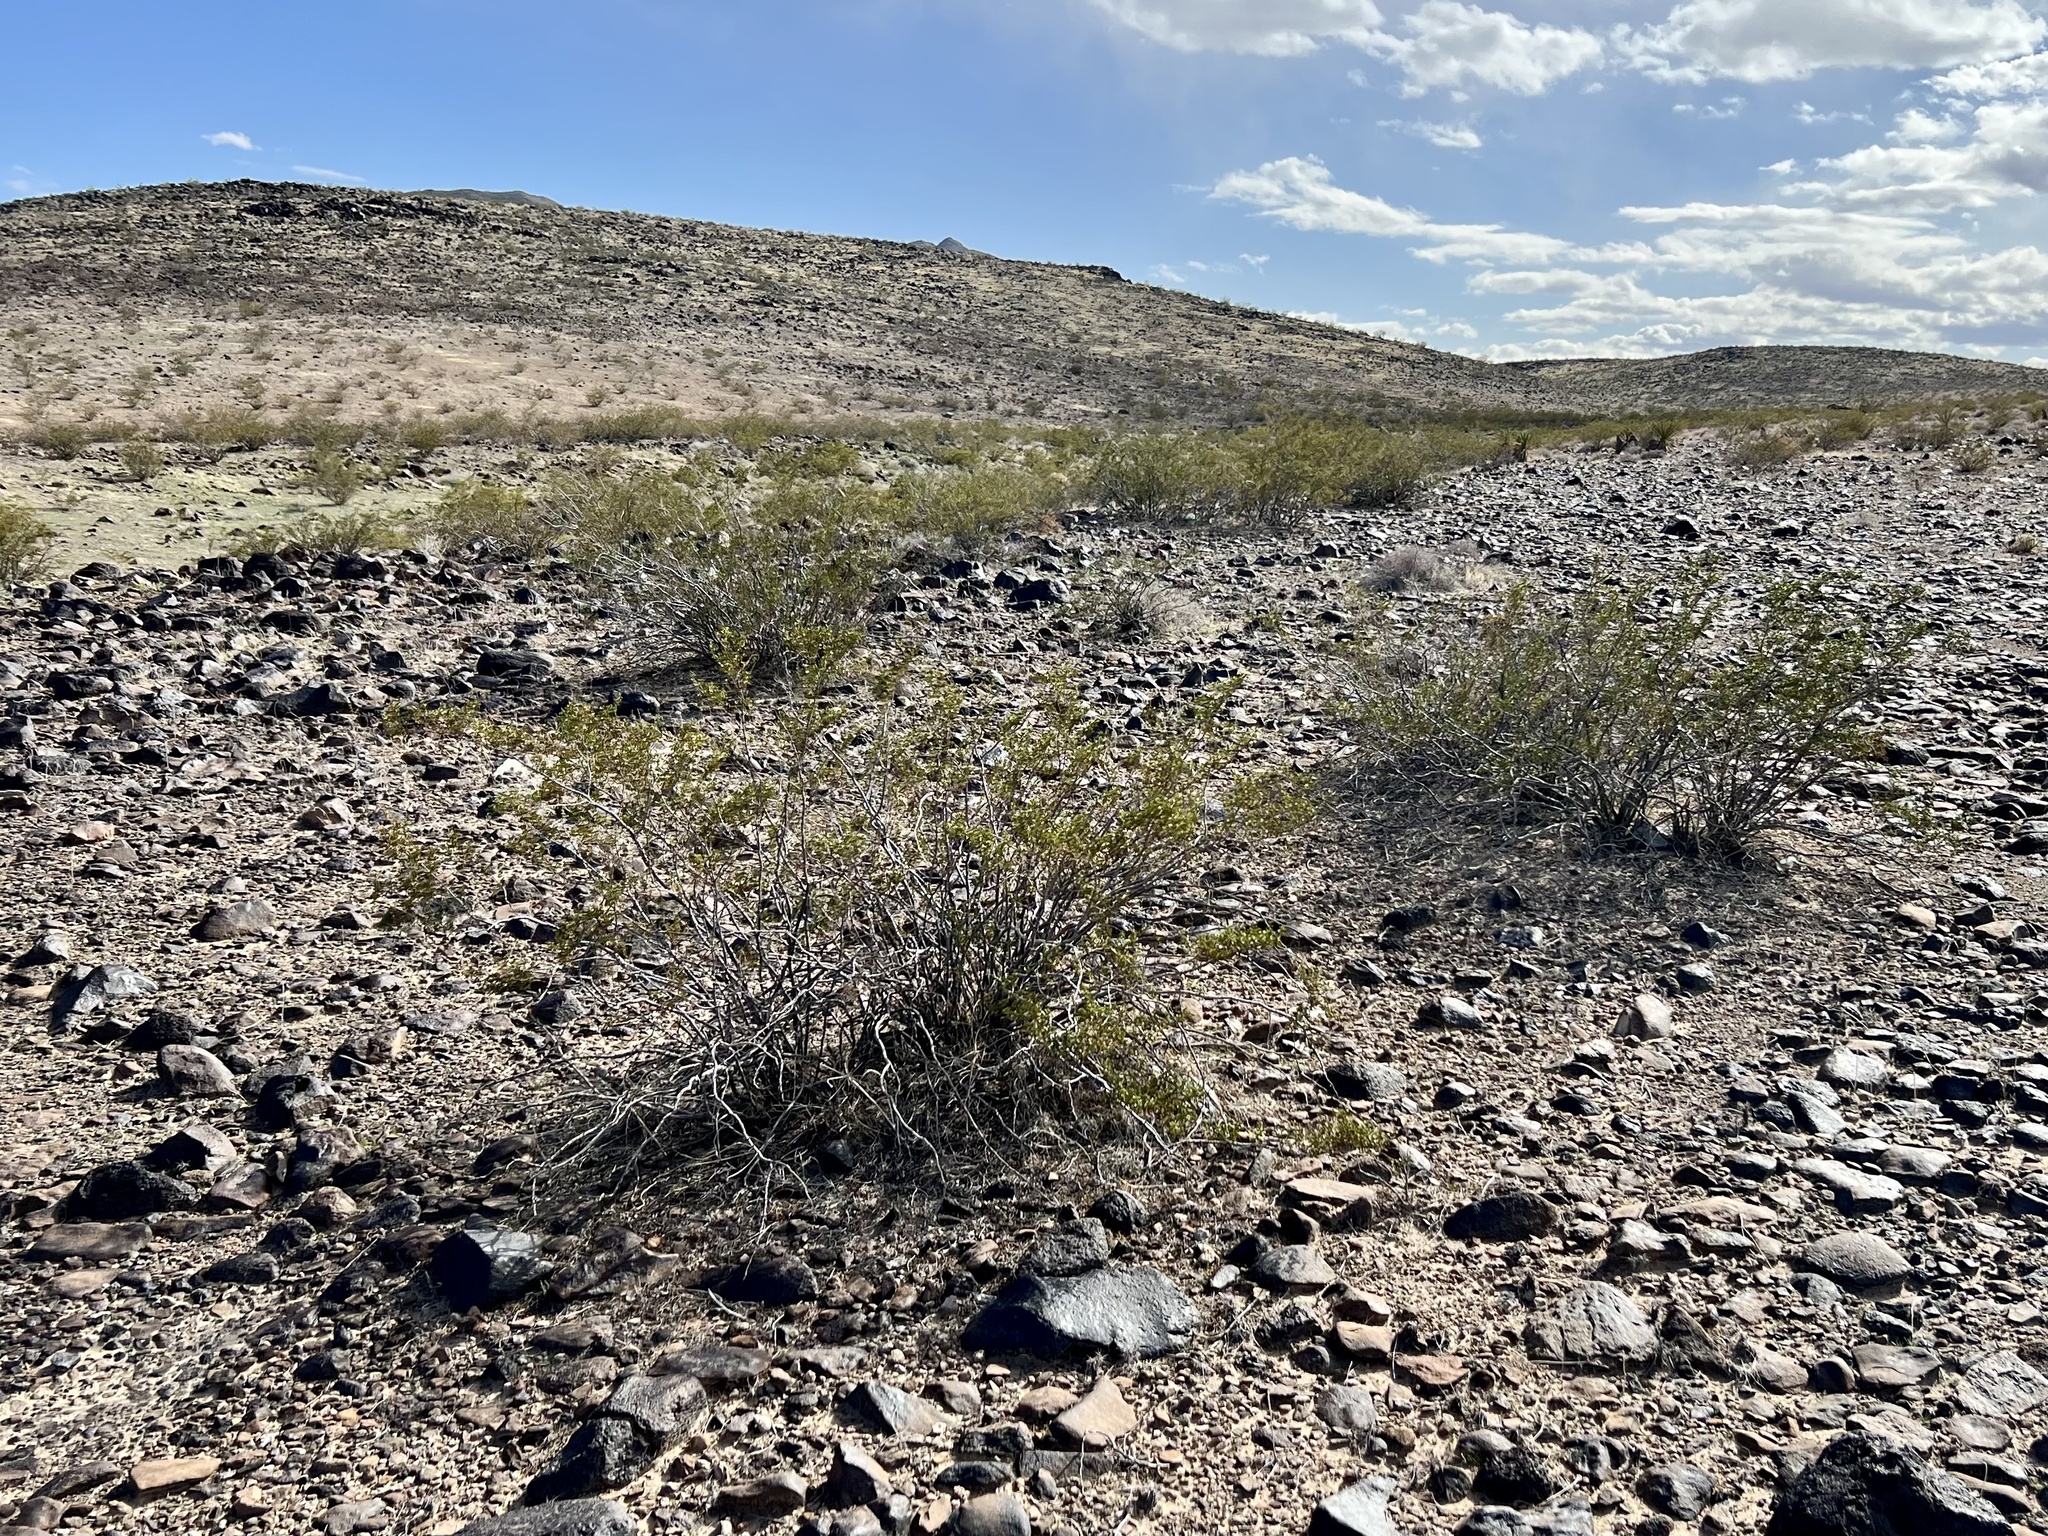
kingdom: Plantae
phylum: Tracheophyta
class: Magnoliopsida
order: Zygophyllales
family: Zygophyllaceae
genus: Larrea
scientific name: Larrea tridentata
